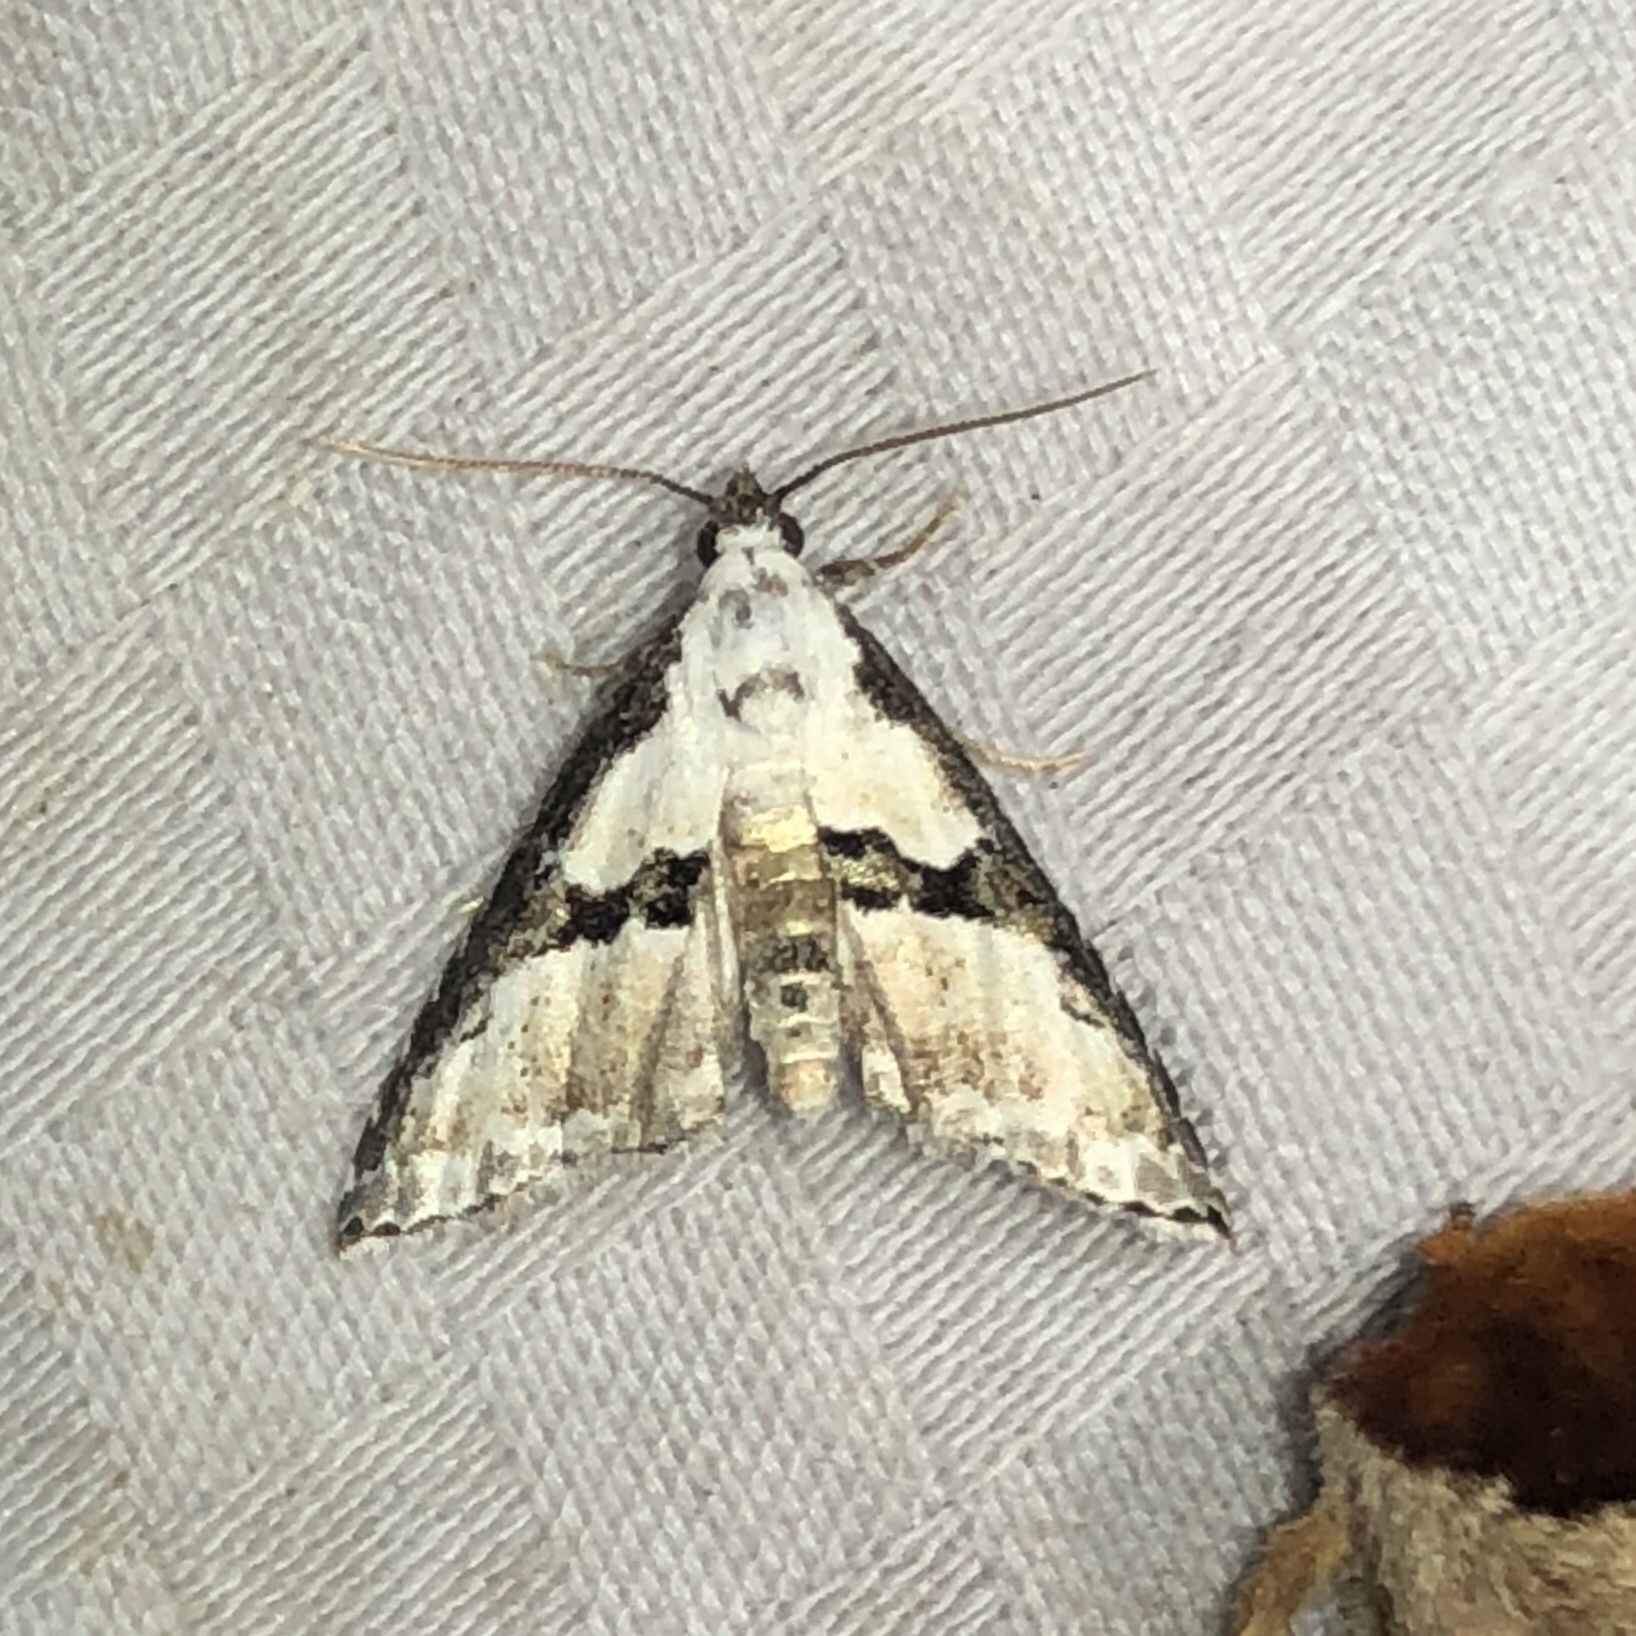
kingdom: Animalia
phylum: Arthropoda
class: Insecta
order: Lepidoptera
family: Noctuidae
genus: Nigetia
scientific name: Nigetia formosalis
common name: Thin-winged owlet
